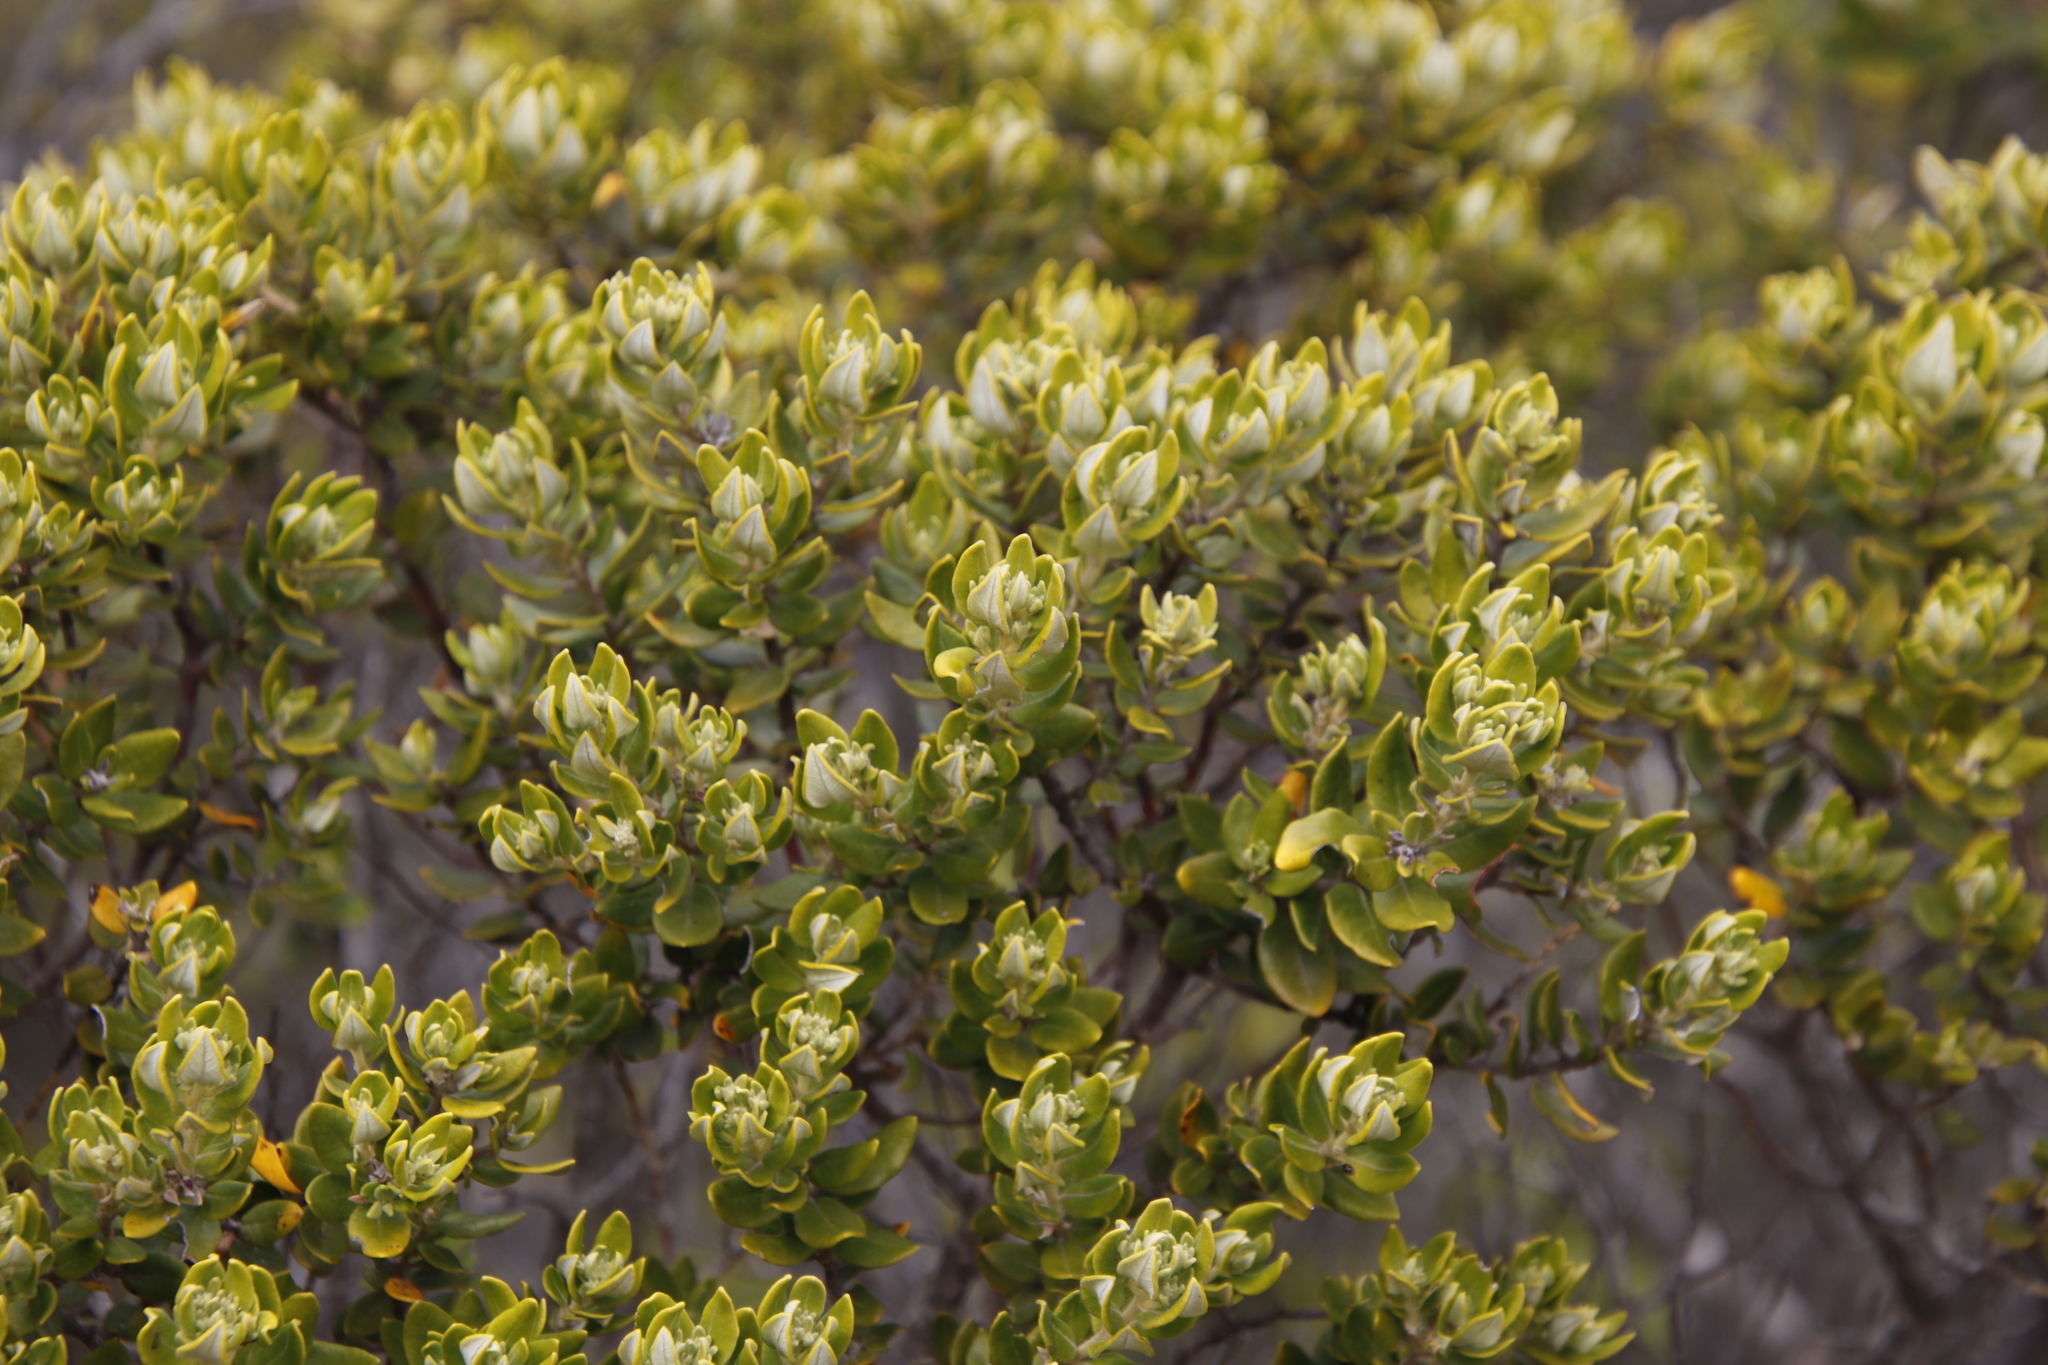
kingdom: Plantae
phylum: Tracheophyta
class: Magnoliopsida
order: Rosales
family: Rhamnaceae
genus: Phylica
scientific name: Phylica buxifolia
